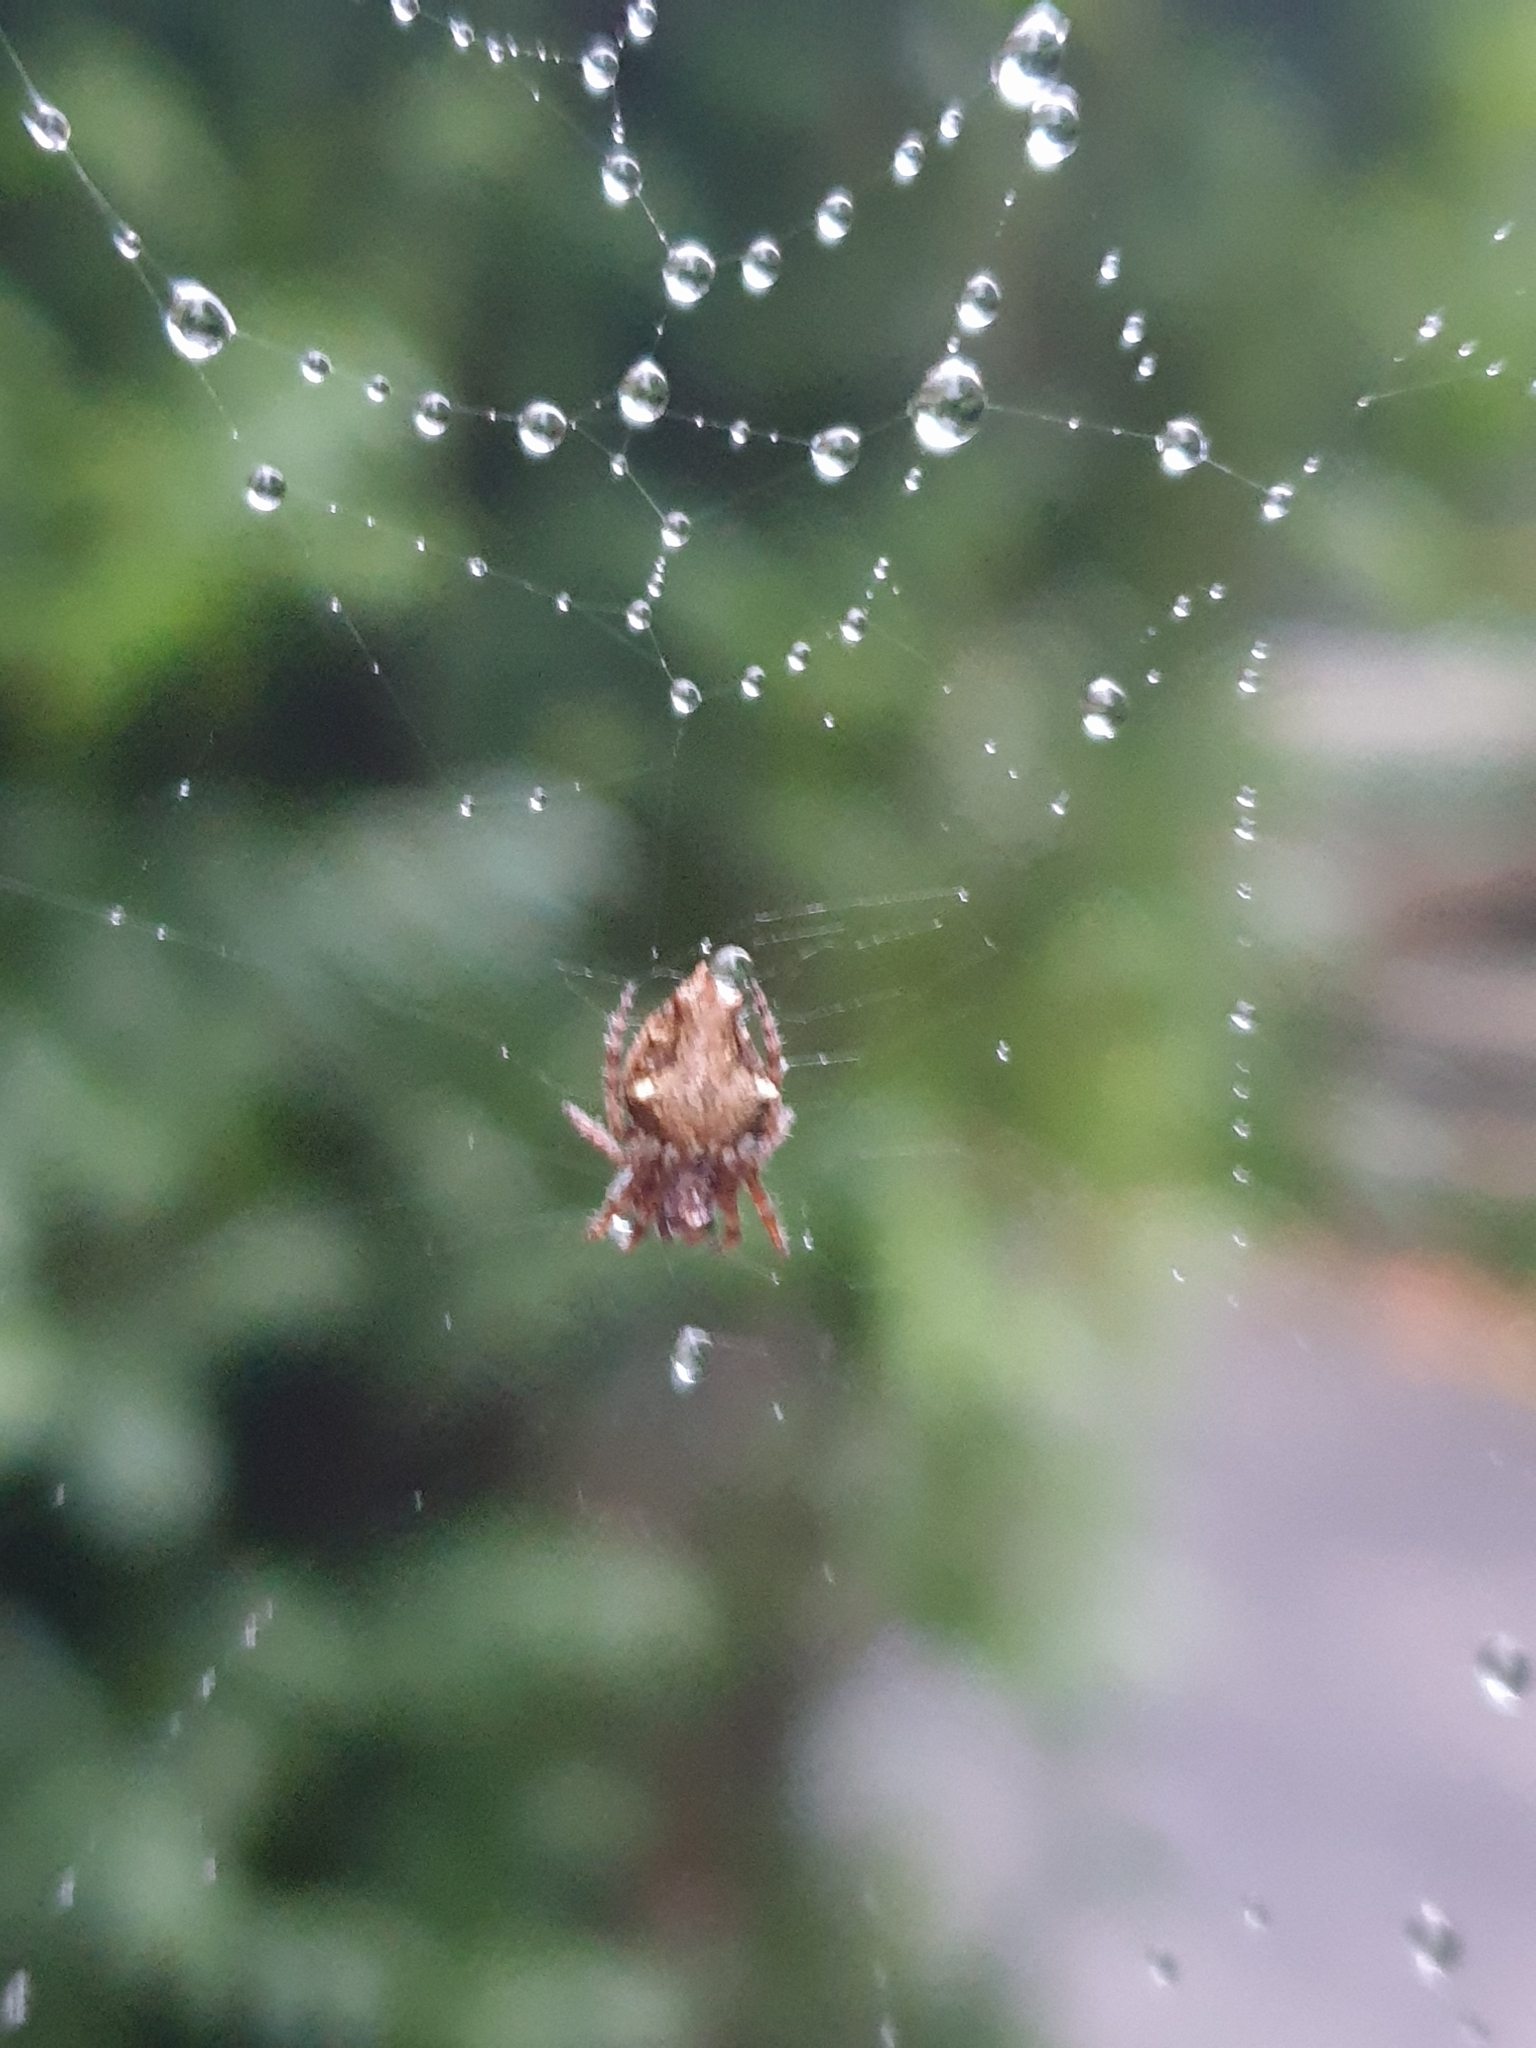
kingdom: Animalia
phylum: Arthropoda
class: Arachnida
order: Araneae
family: Araneidae
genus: Eriophora
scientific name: Eriophora pustulosa
